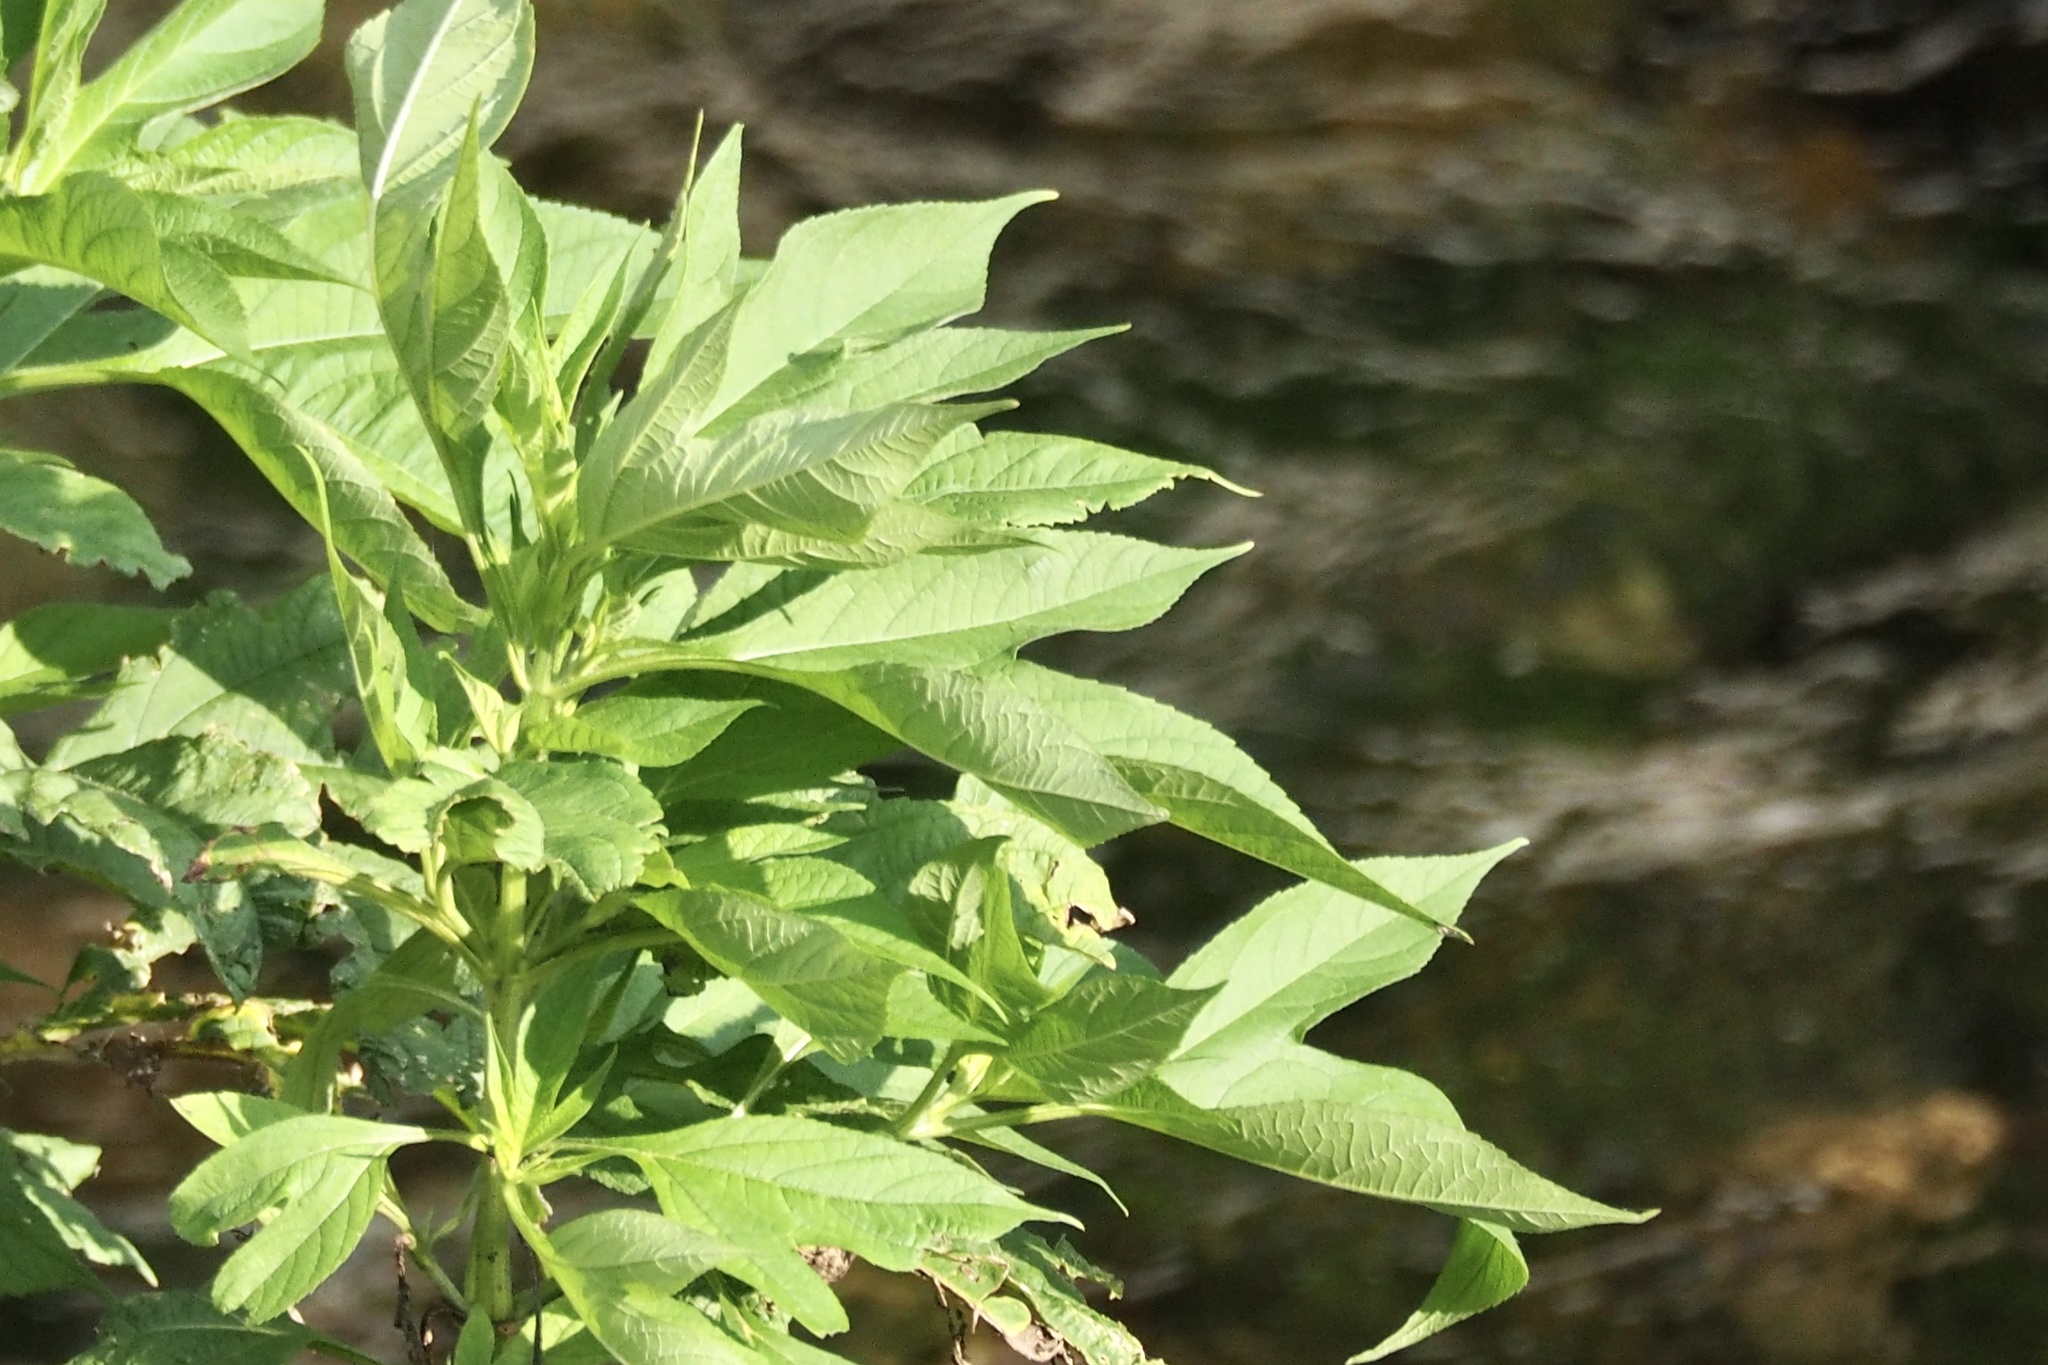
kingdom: Plantae
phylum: Tracheophyta
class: Magnoliopsida
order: Asterales
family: Asteraceae
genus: Ambrosia
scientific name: Ambrosia trifida
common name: Giant ragweed
